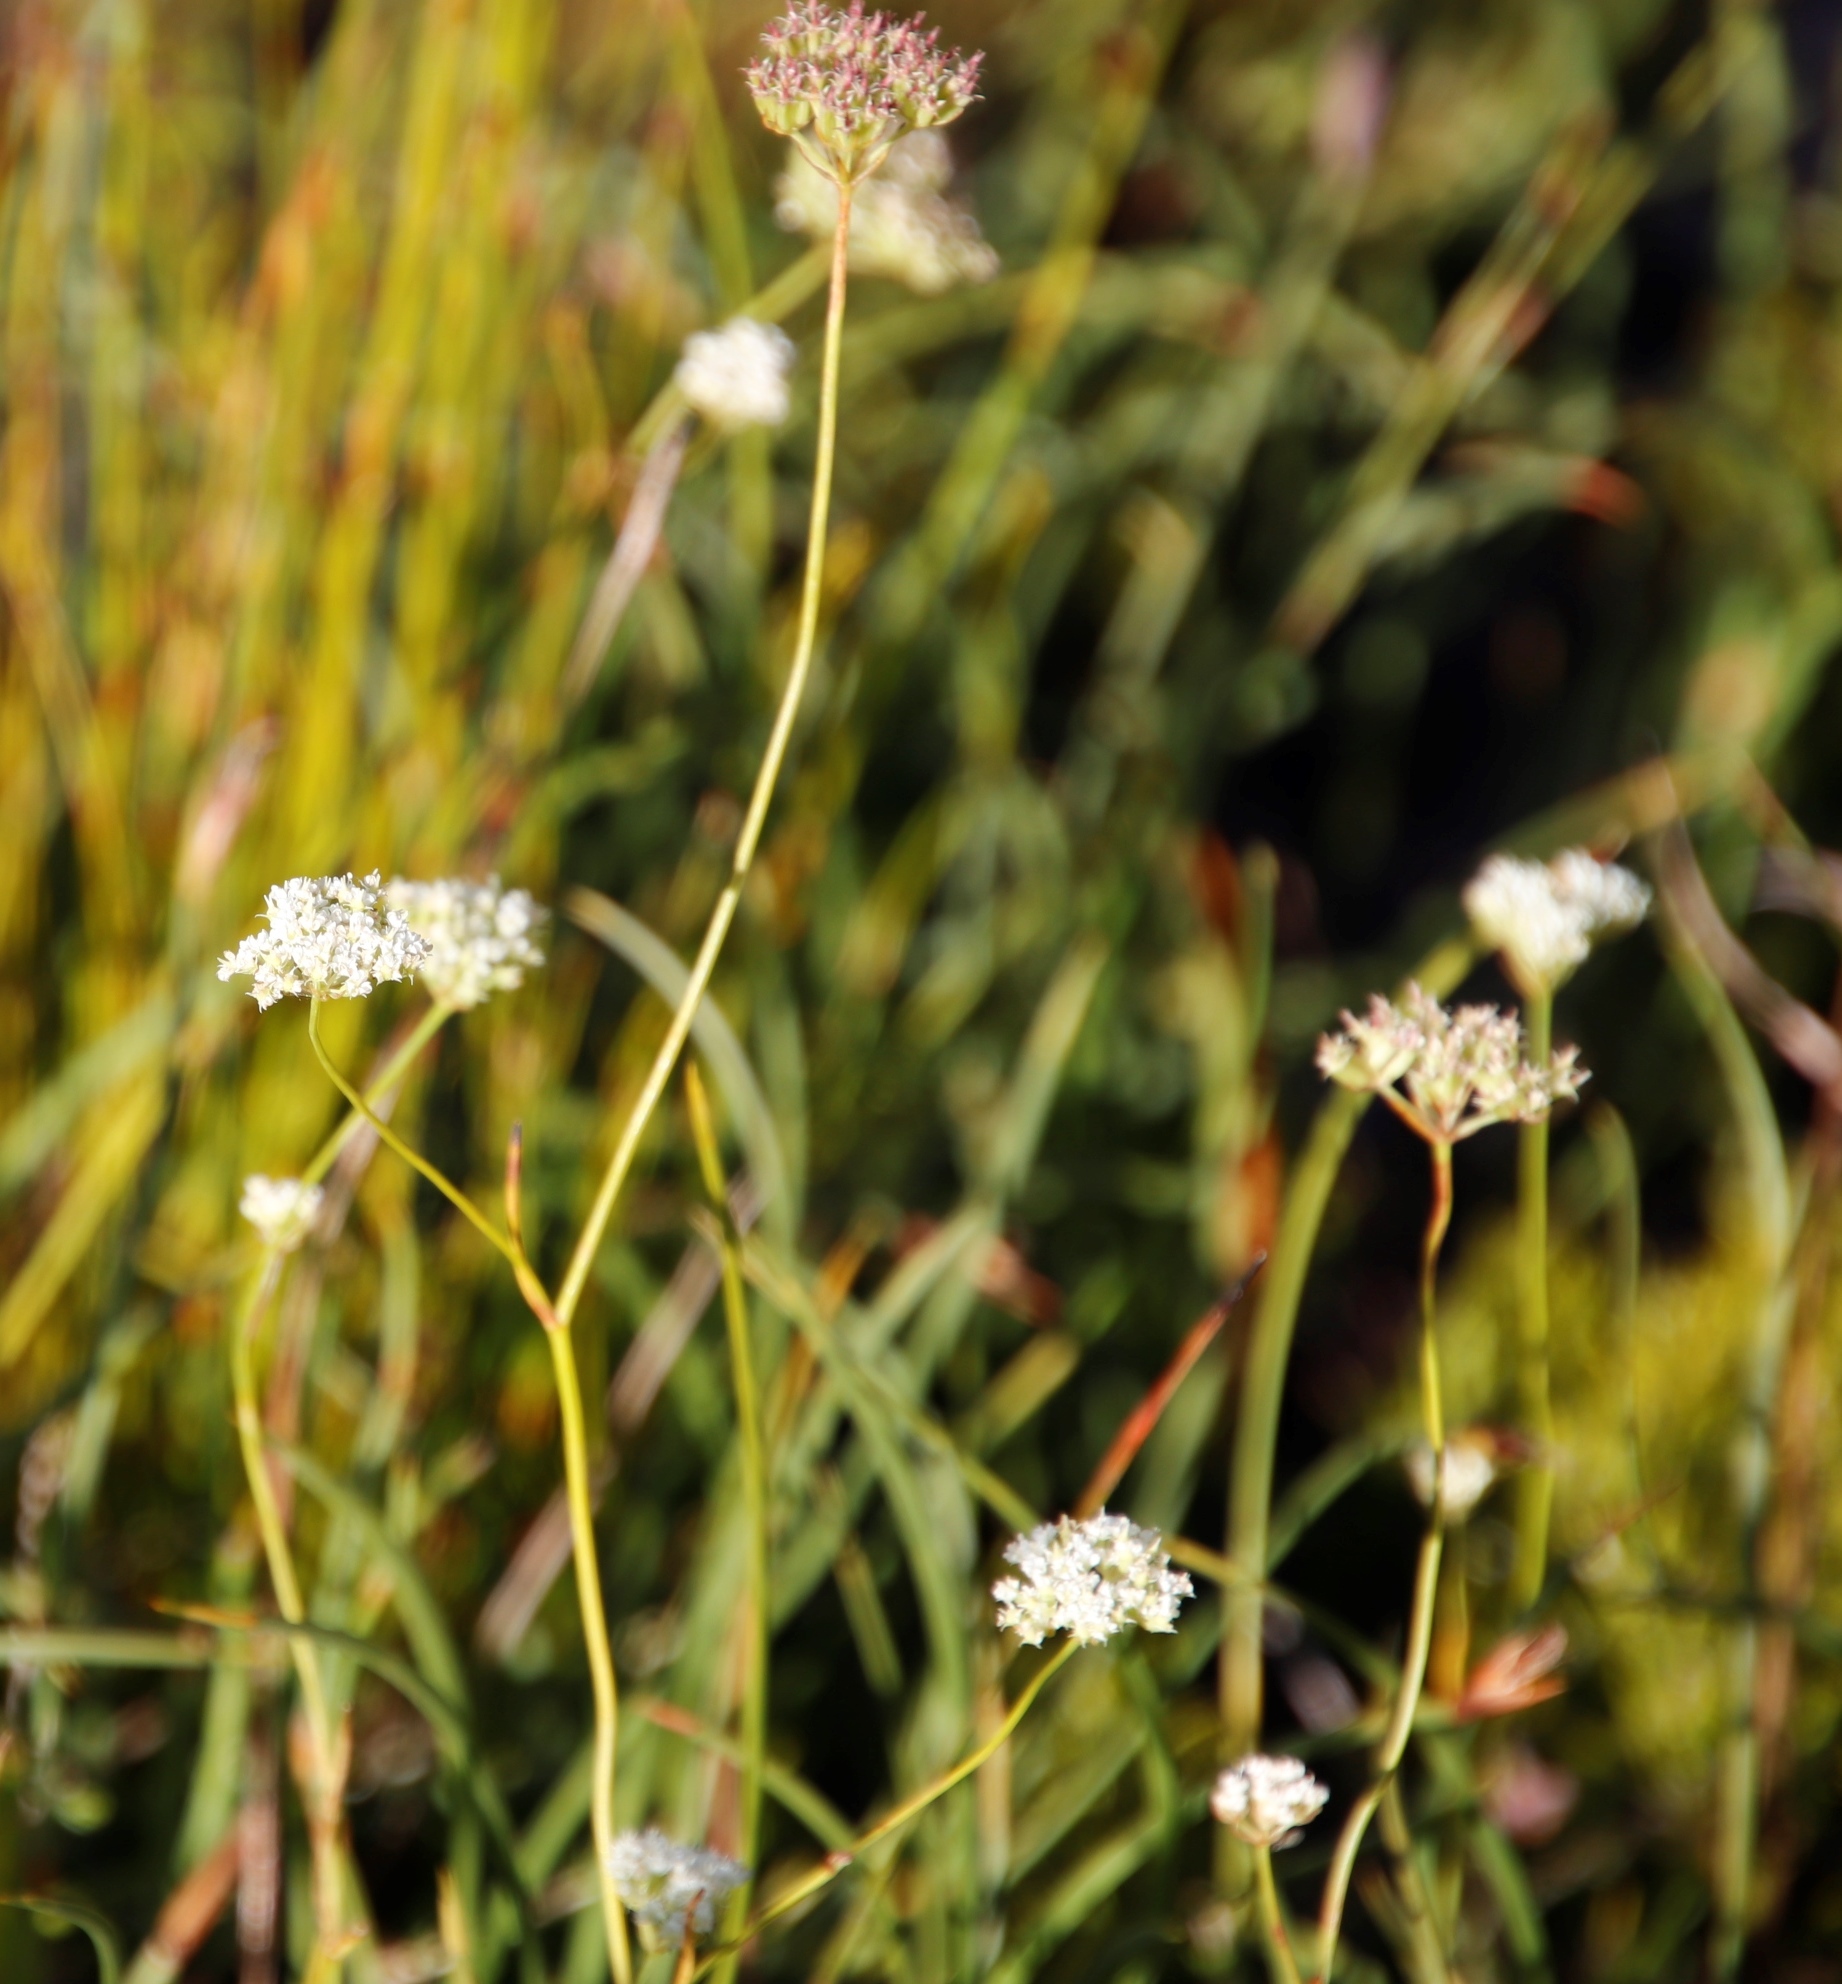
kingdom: Plantae
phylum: Tracheophyta
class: Magnoliopsida
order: Apiales
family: Apiaceae
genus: Itasina
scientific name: Itasina filifolia
